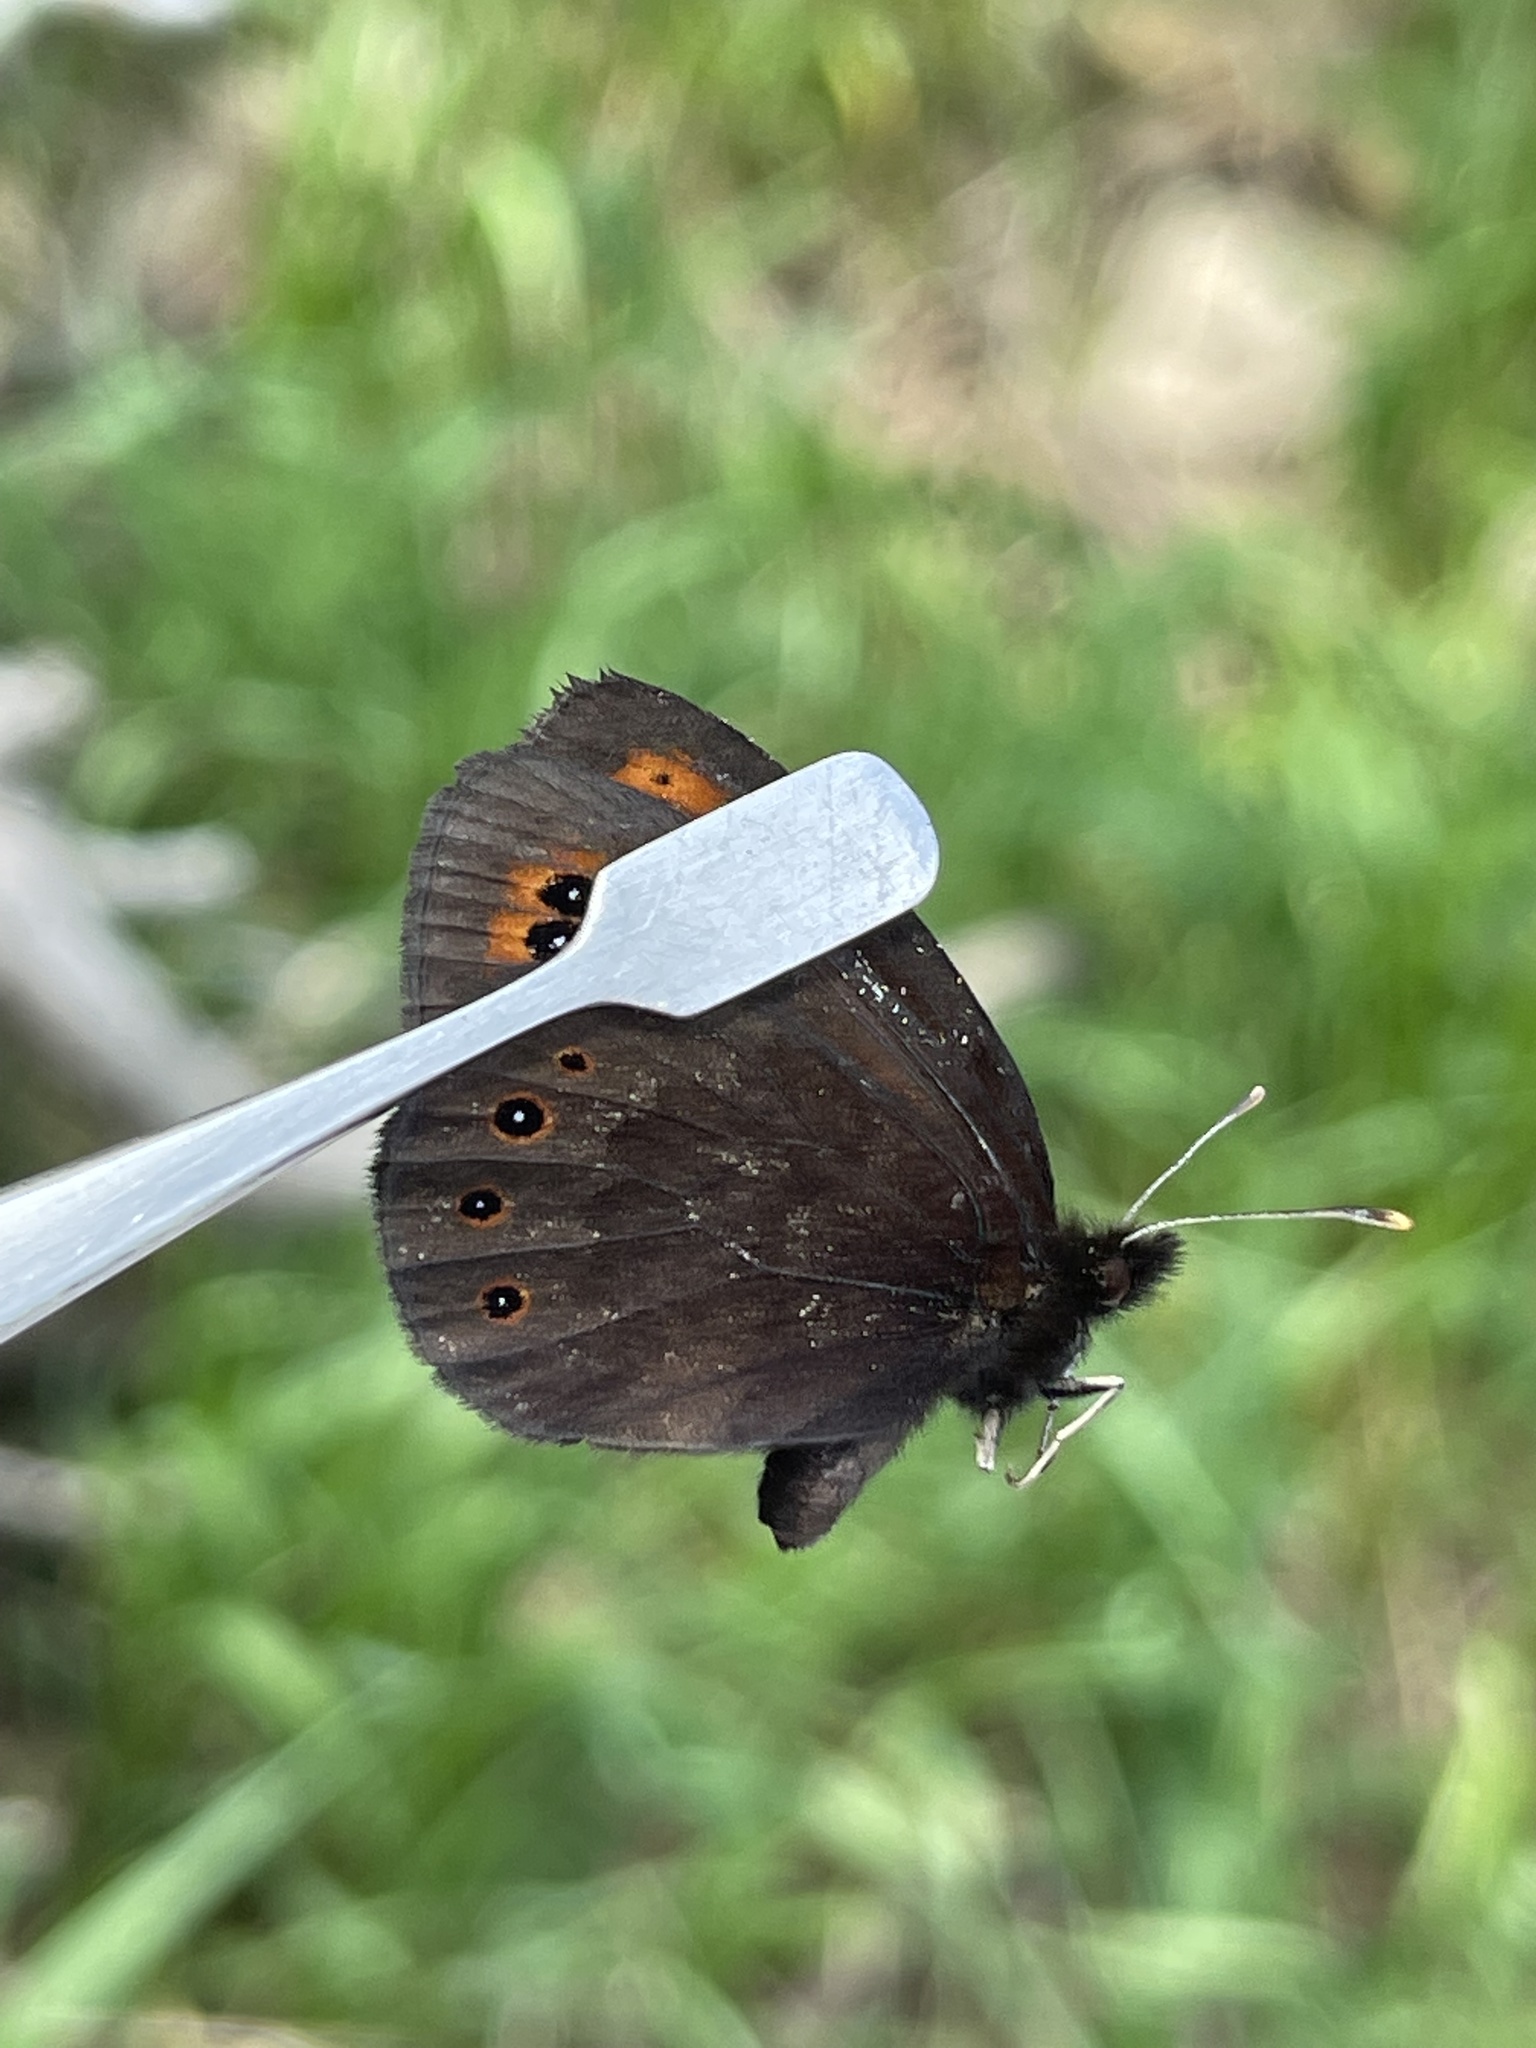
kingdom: Animalia
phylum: Arthropoda
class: Insecta
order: Lepidoptera
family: Nymphalidae
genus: Erebia
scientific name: Erebia epipsodea
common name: Common alpine
